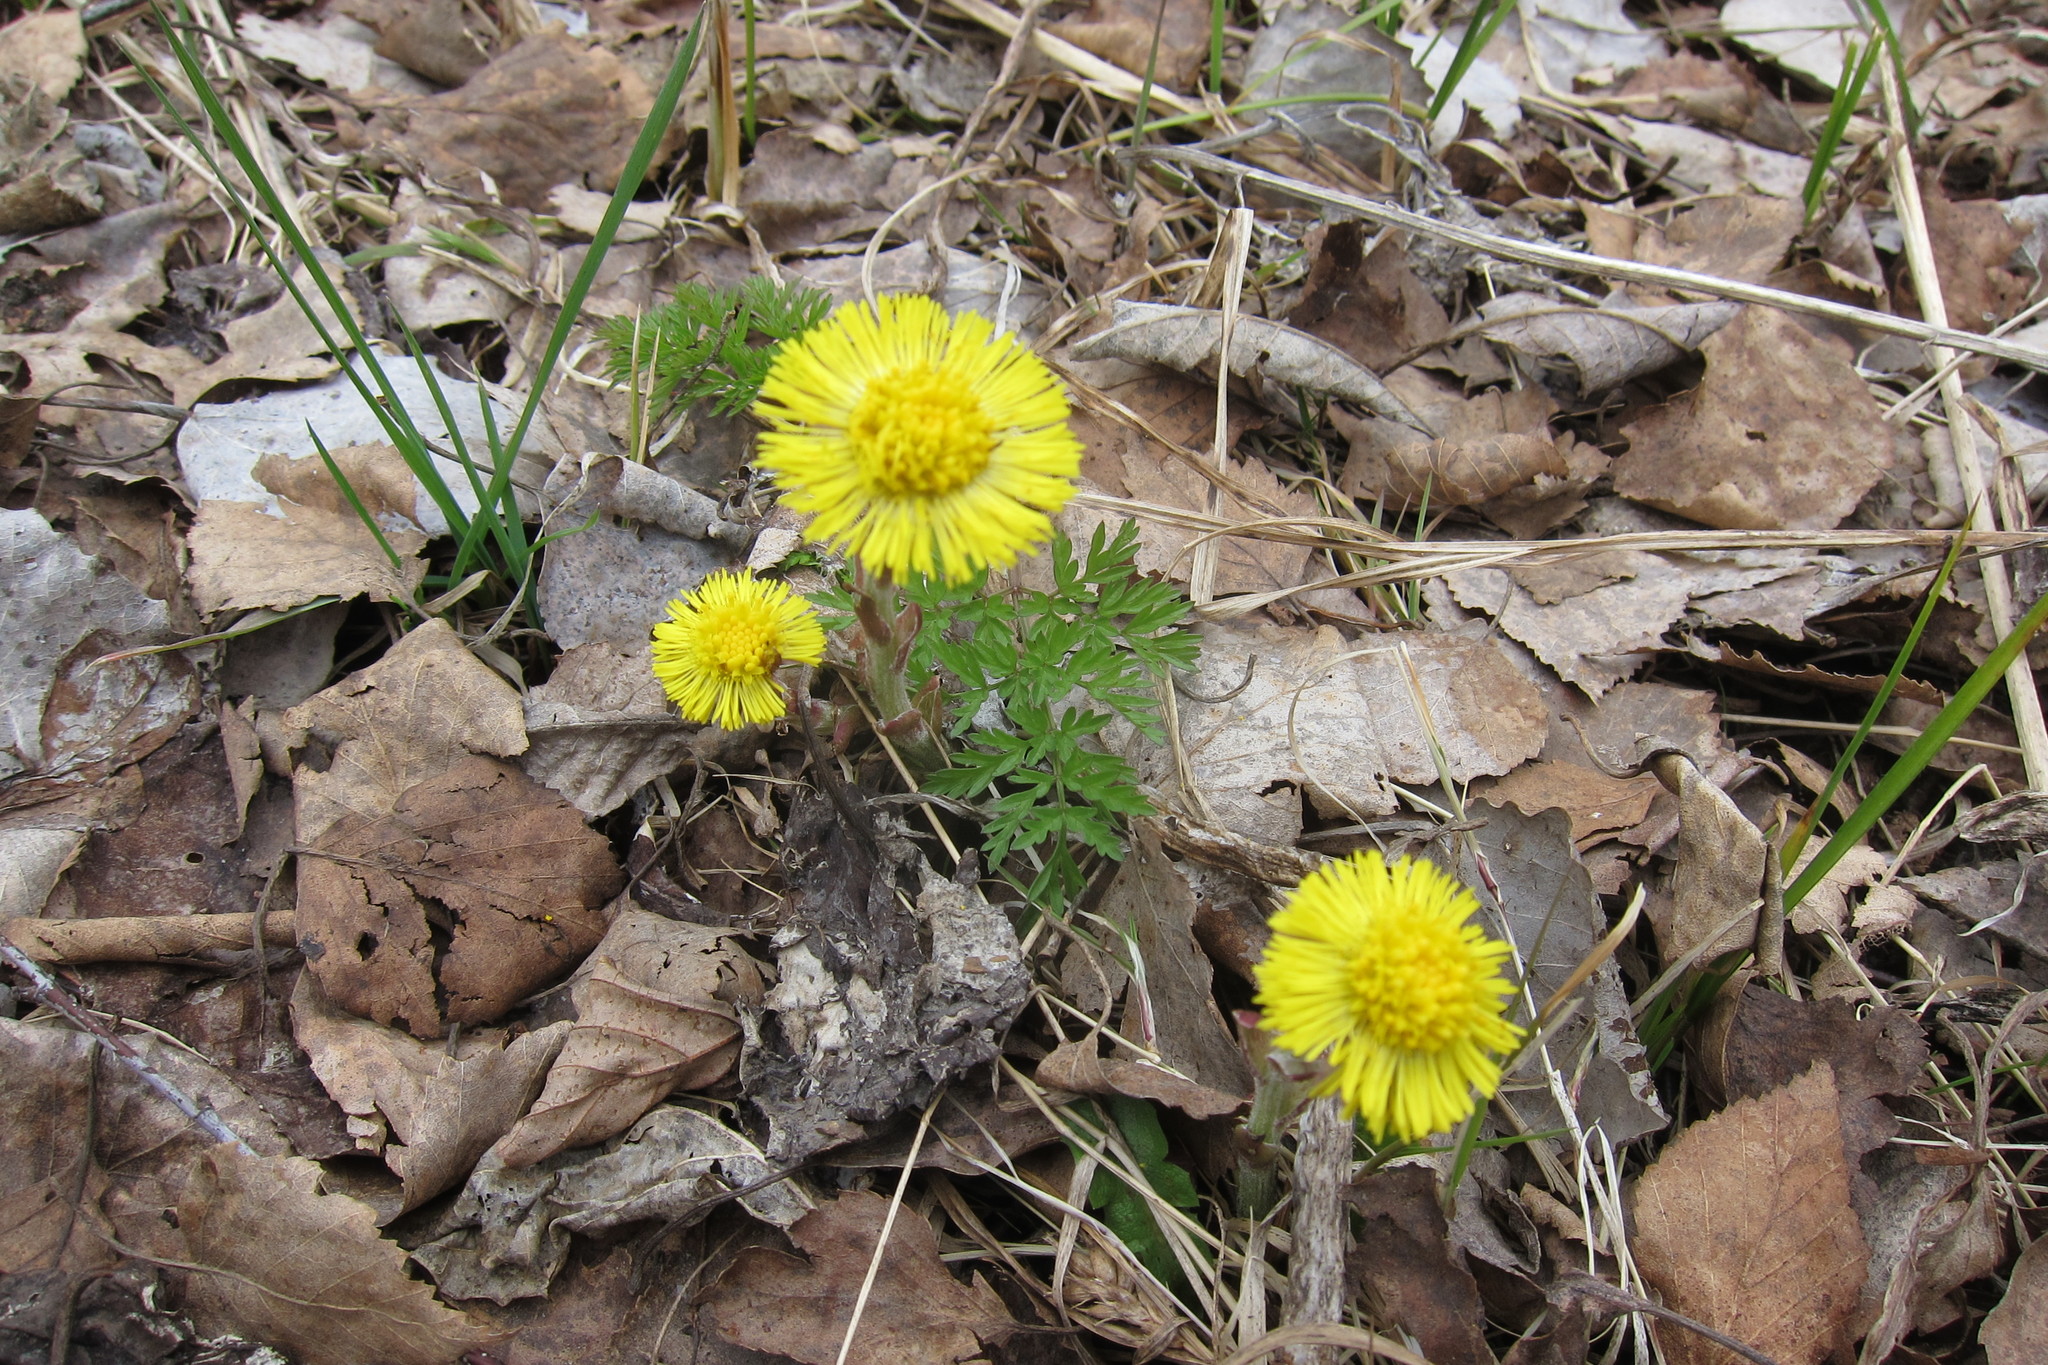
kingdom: Plantae
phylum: Tracheophyta
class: Magnoliopsida
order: Asterales
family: Asteraceae
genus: Tussilago
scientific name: Tussilago farfara
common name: Coltsfoot
